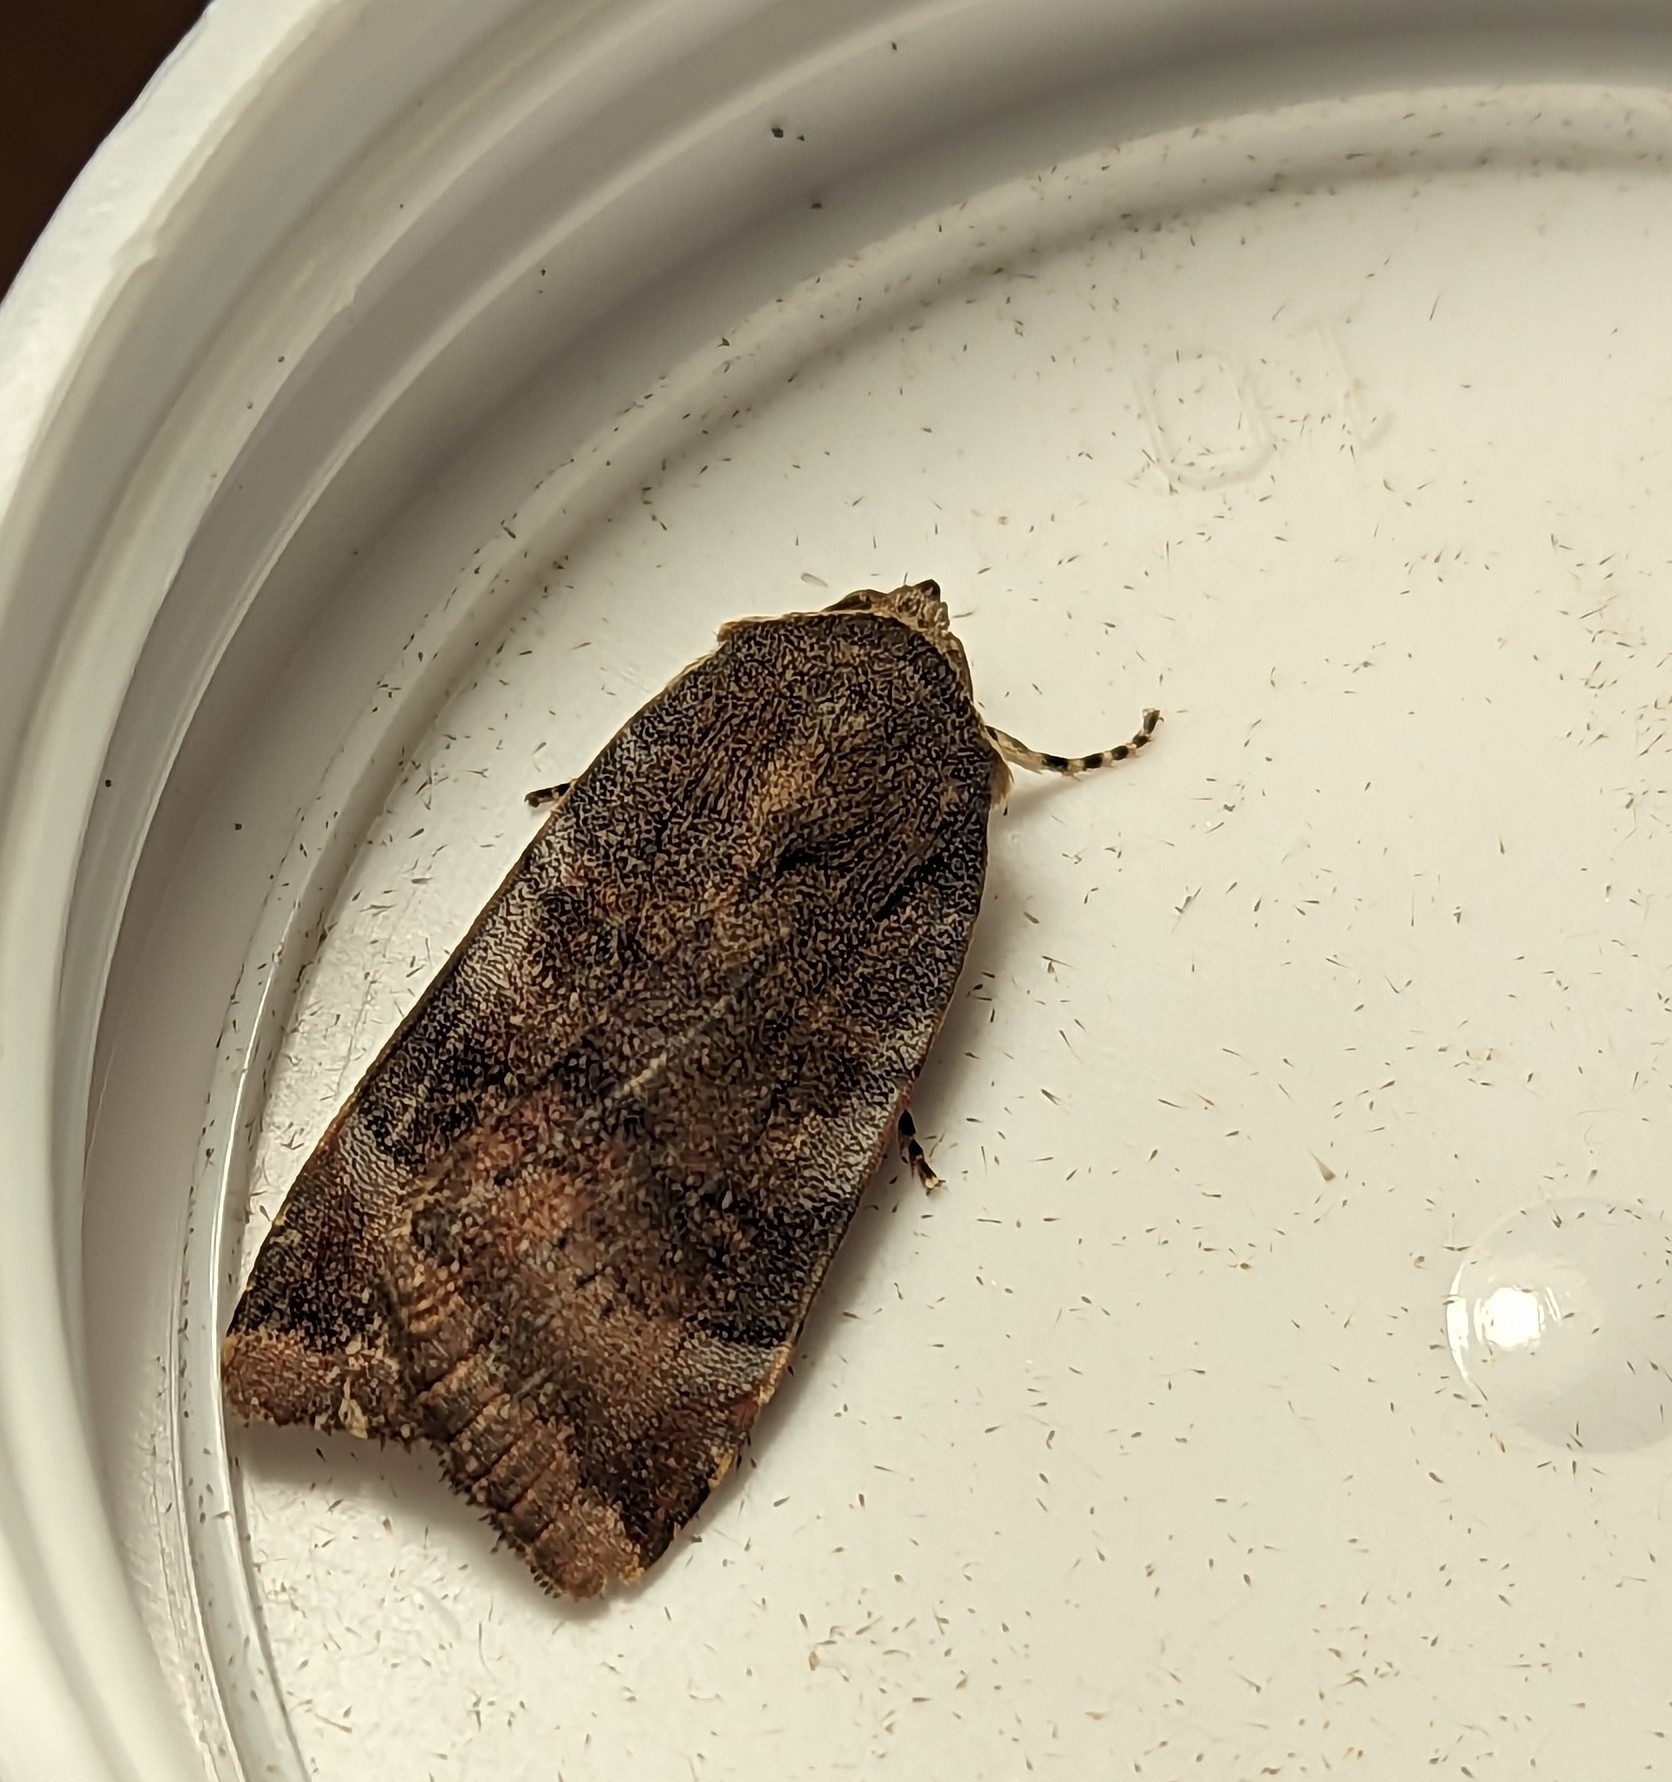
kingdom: Animalia
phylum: Arthropoda
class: Insecta
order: Lepidoptera
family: Noctuidae
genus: Noctua
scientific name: Noctua janthe
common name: Lesser broad-bordered yellow underwing
